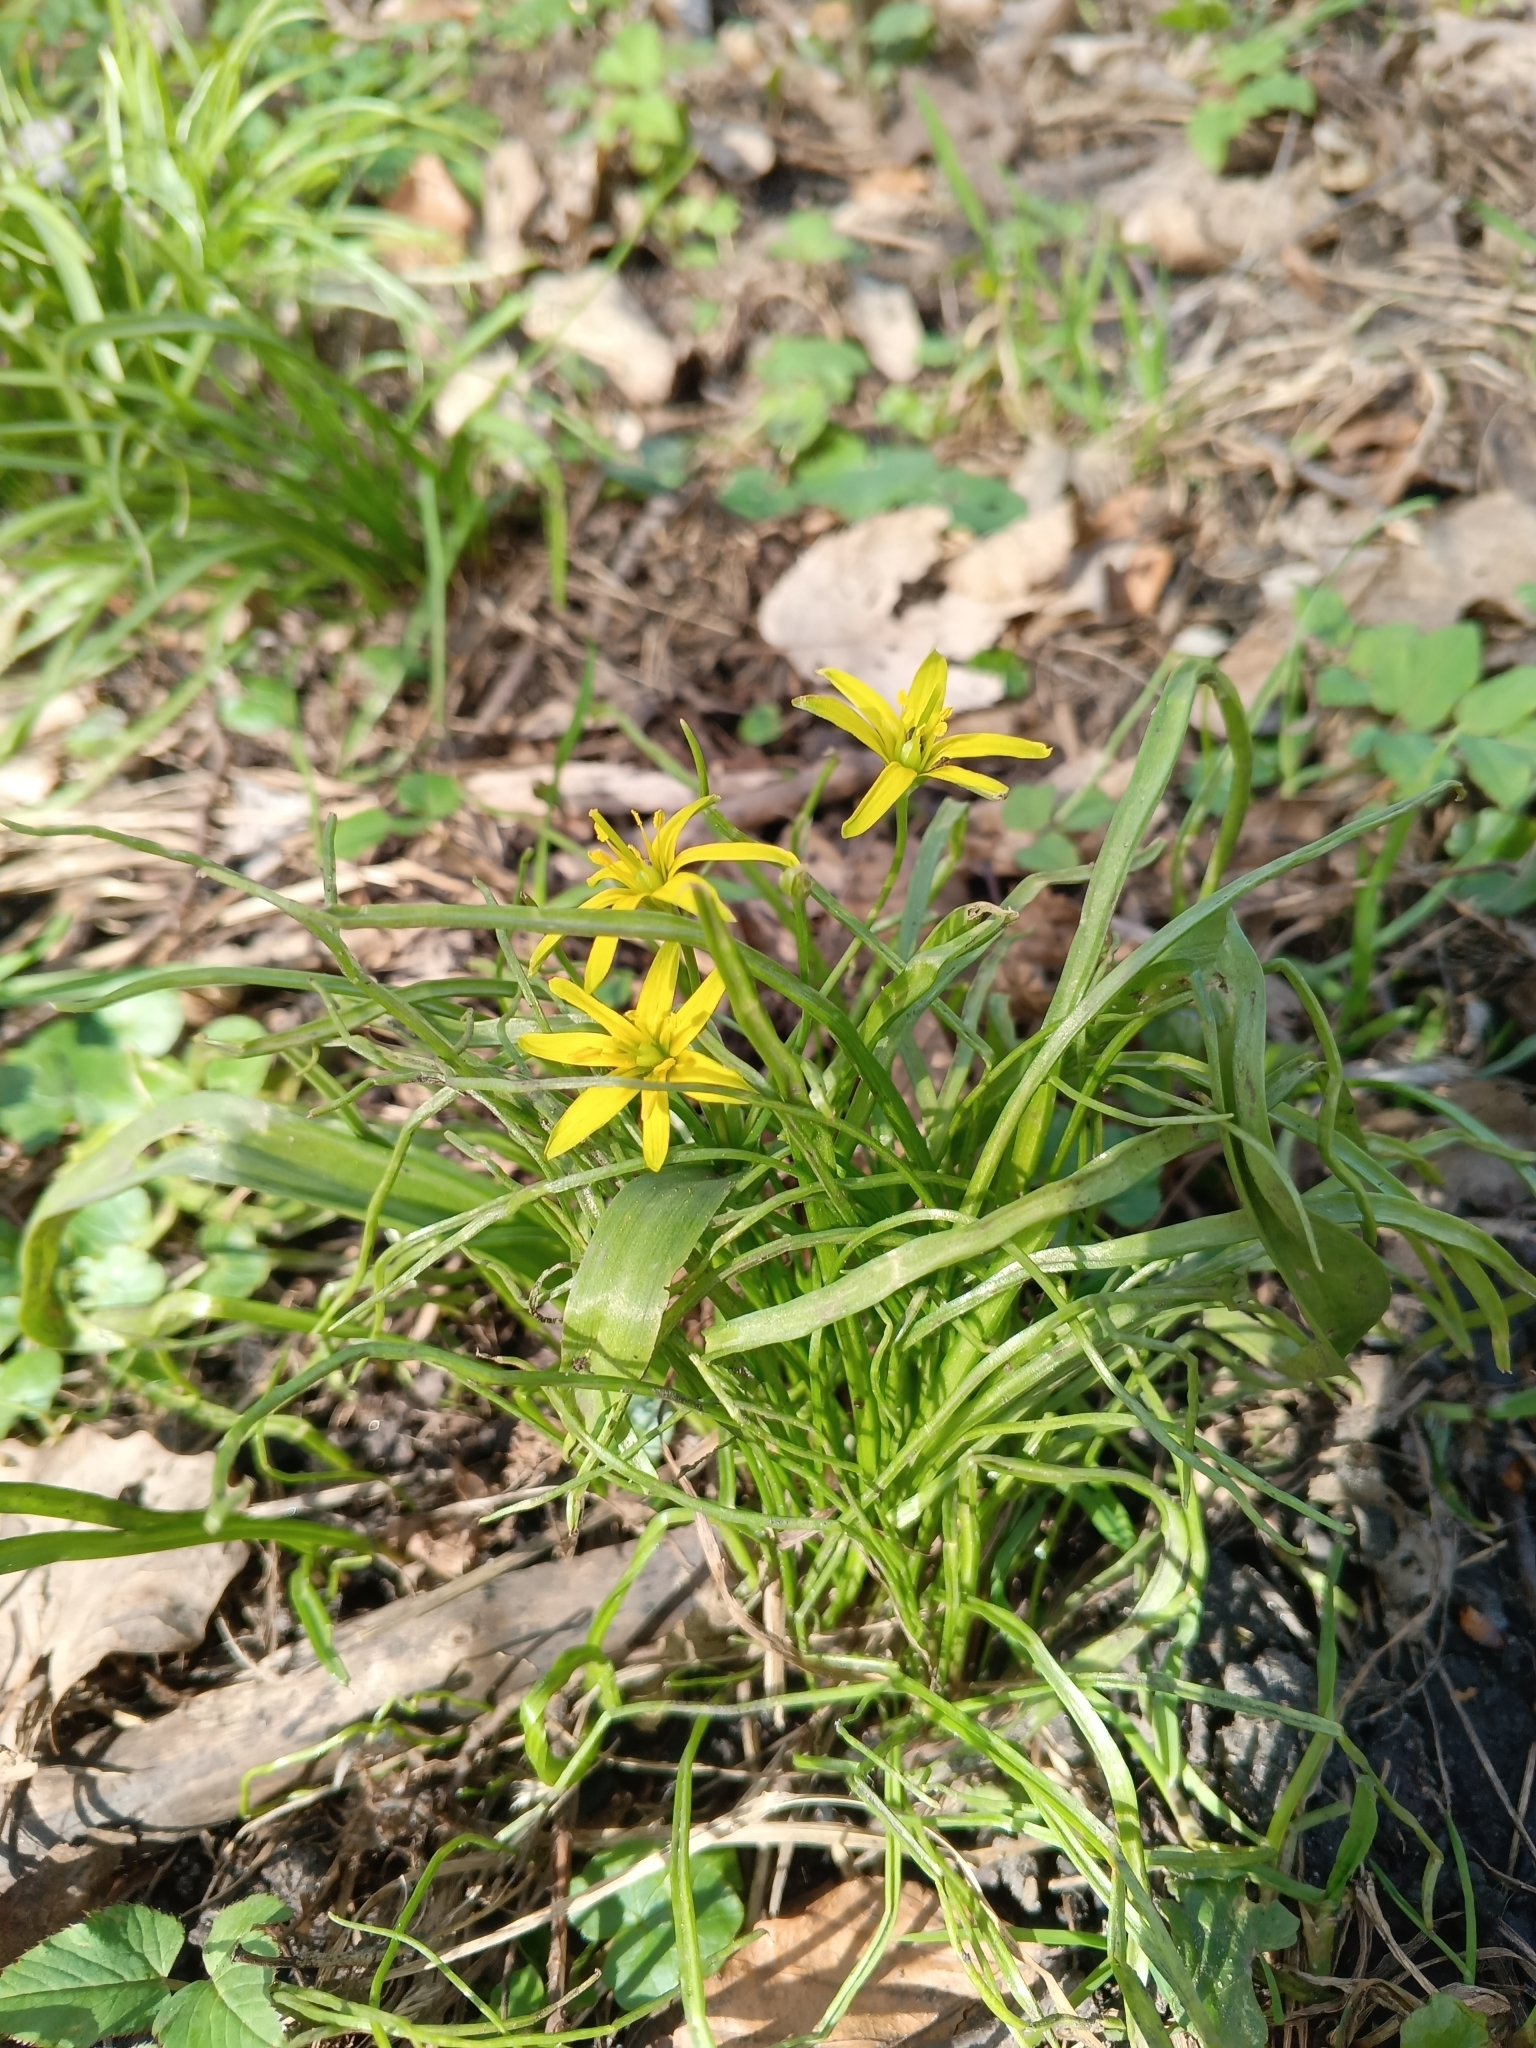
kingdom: Plantae
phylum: Tracheophyta
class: Liliopsida
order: Liliales
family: Liliaceae
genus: Gagea
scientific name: Gagea lutea
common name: Yellow star-of-bethlehem
